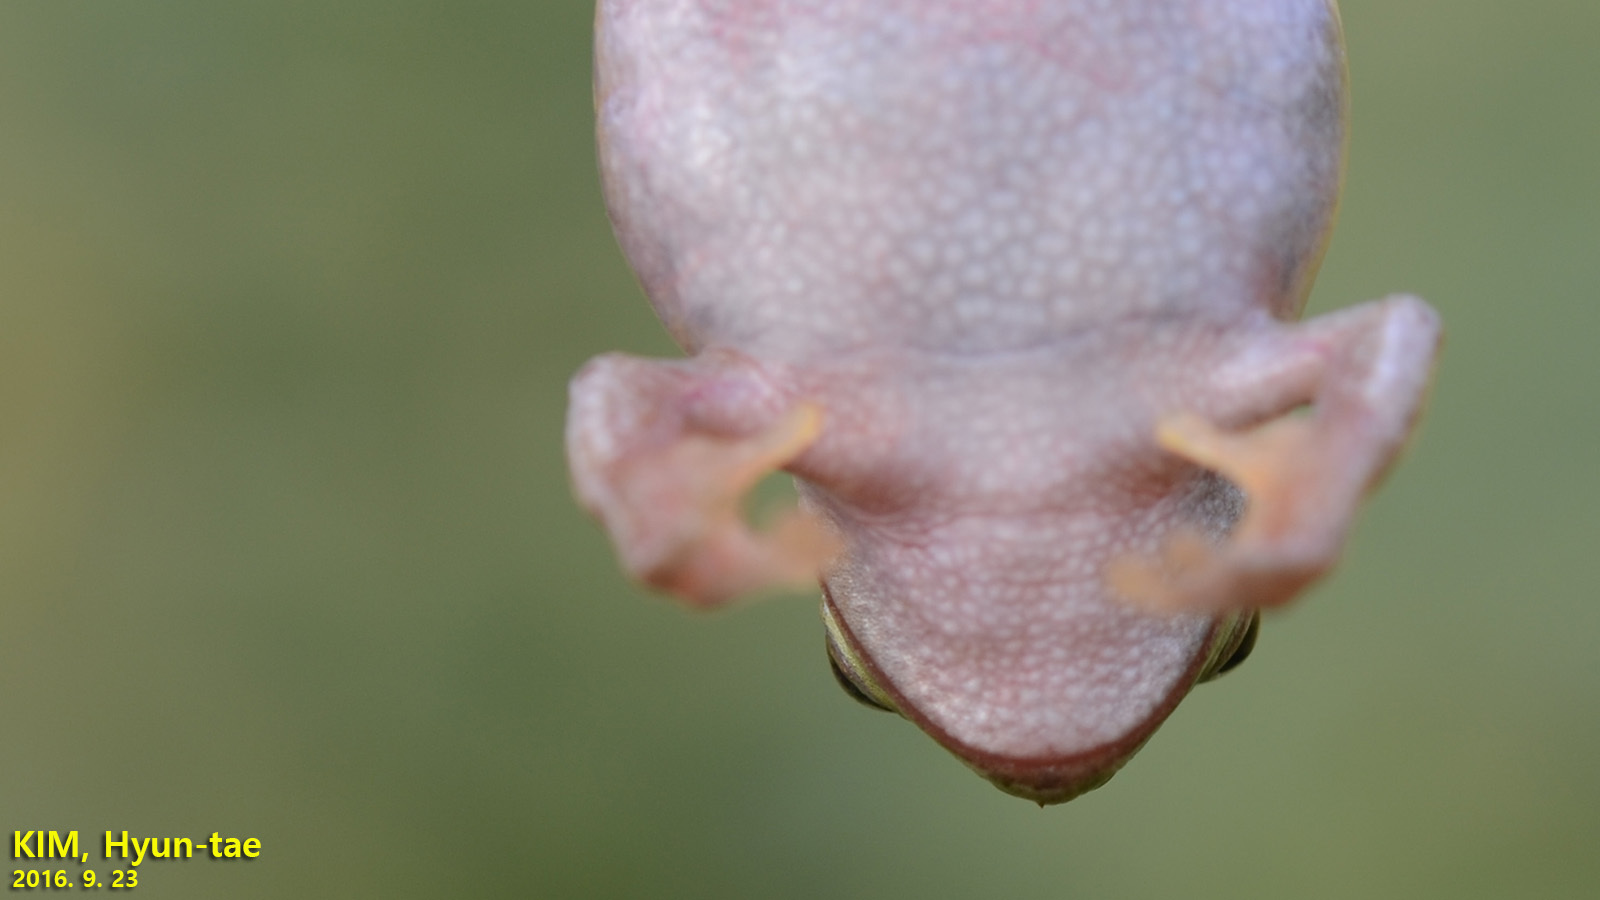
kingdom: Animalia
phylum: Chordata
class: Amphibia
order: Anura
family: Hylidae
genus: Dryophytes
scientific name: Dryophytes japonicus
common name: Japanese treefrog
